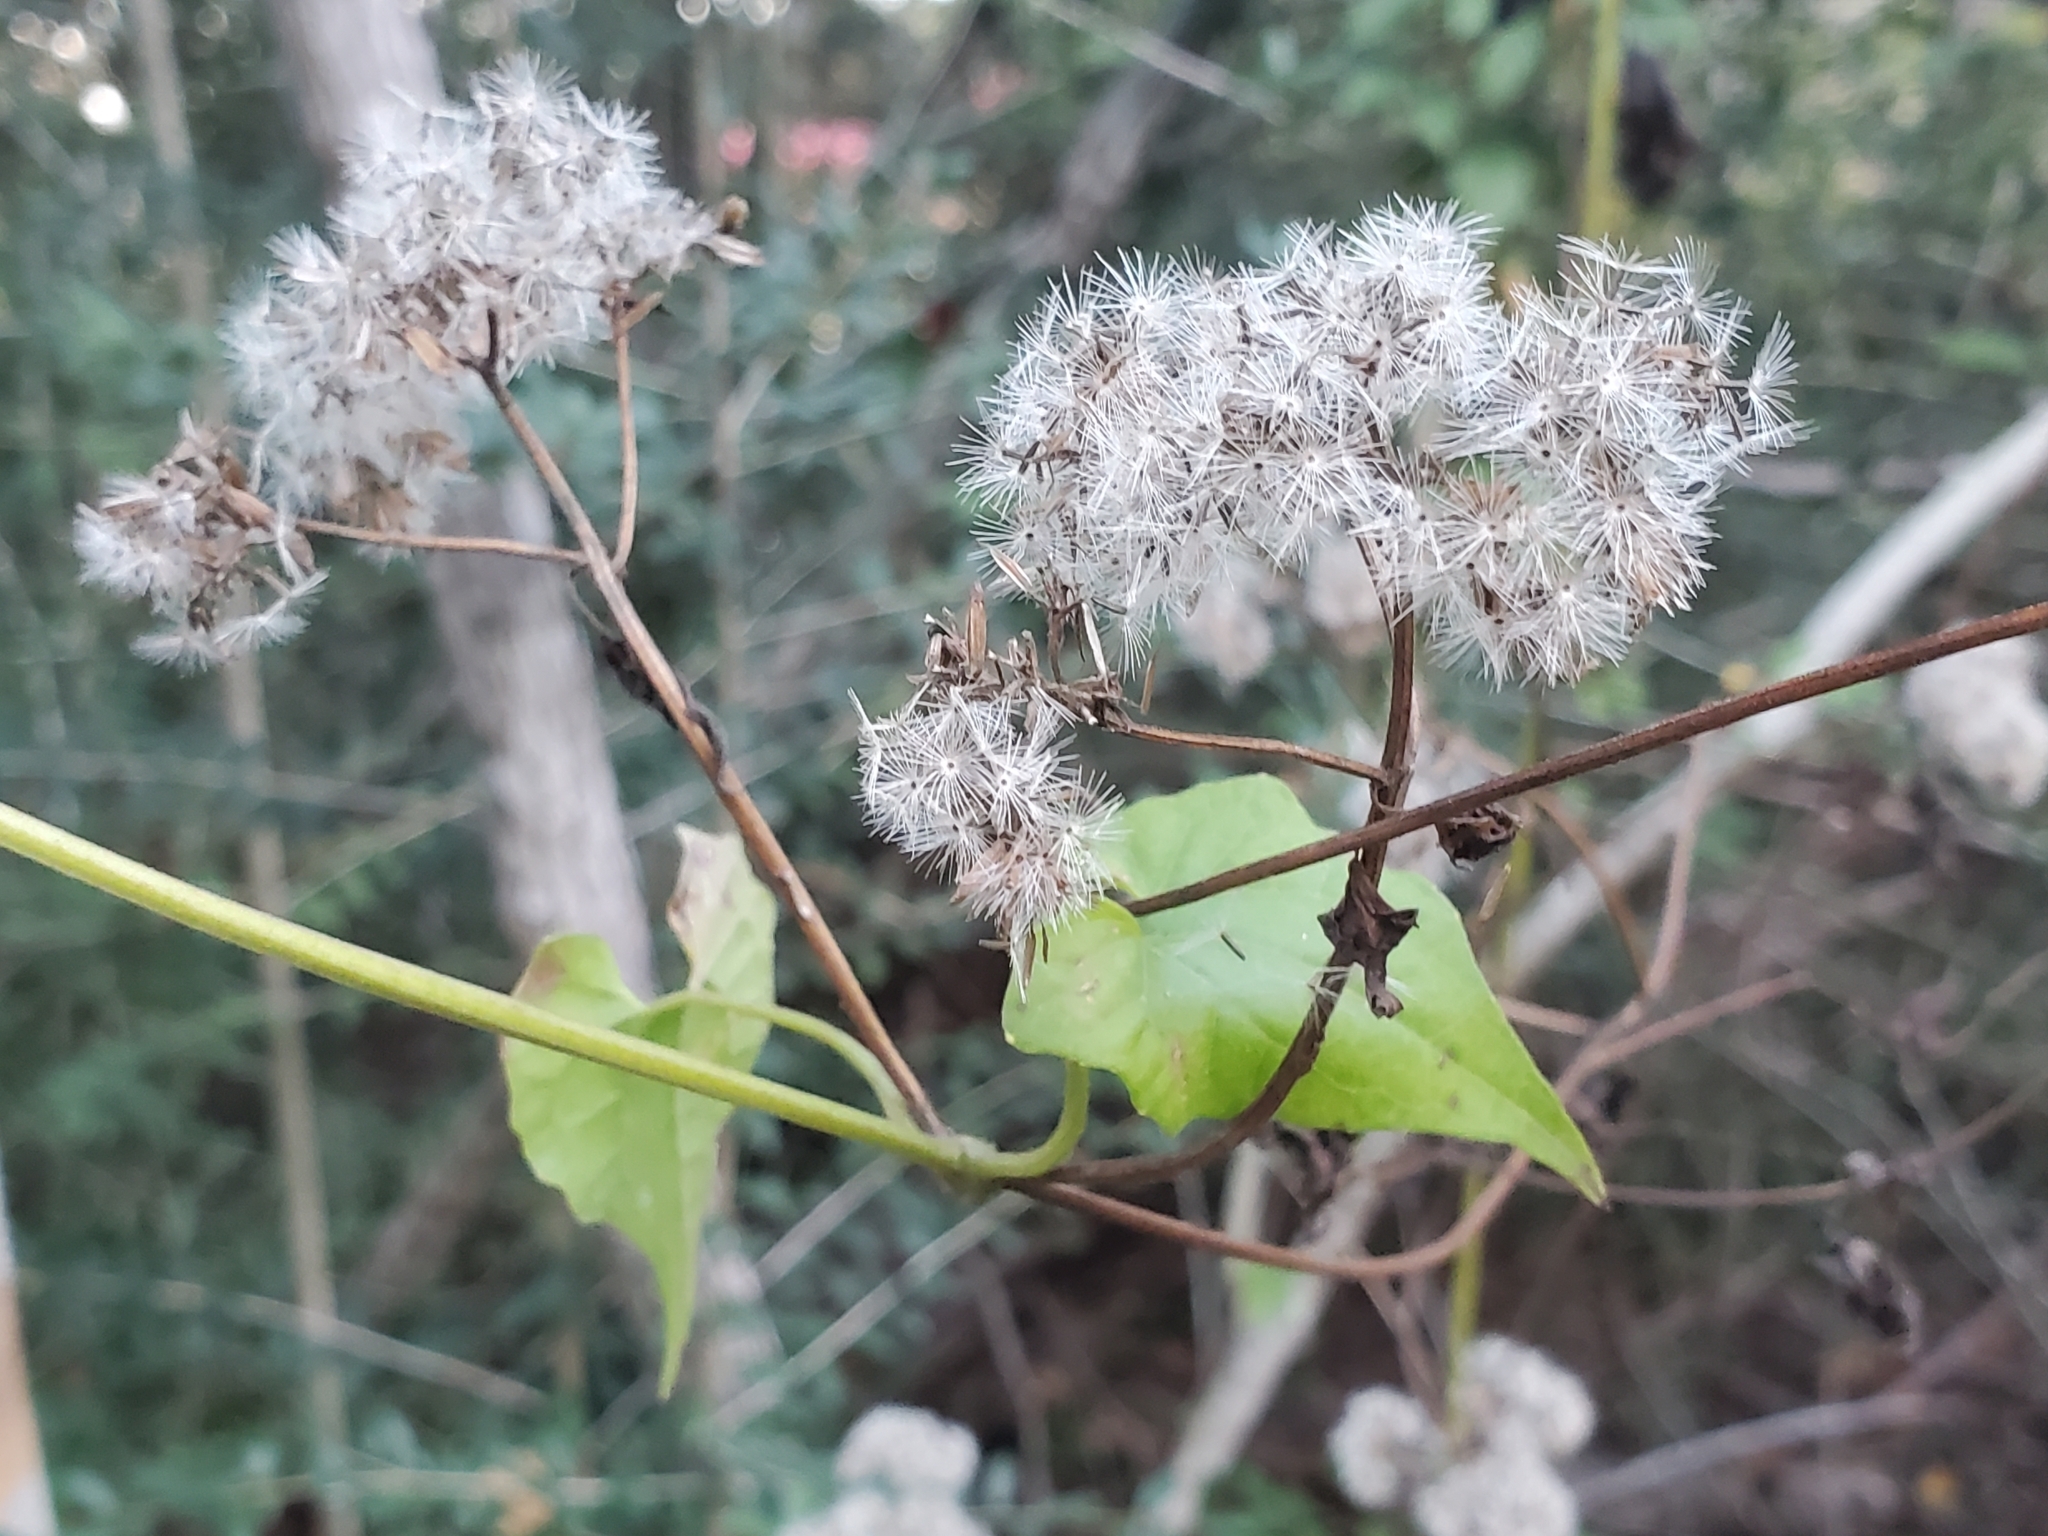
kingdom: Plantae
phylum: Tracheophyta
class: Magnoliopsida
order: Asterales
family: Asteraceae
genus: Mikania
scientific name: Mikania scandens
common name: Climbing hempvine
